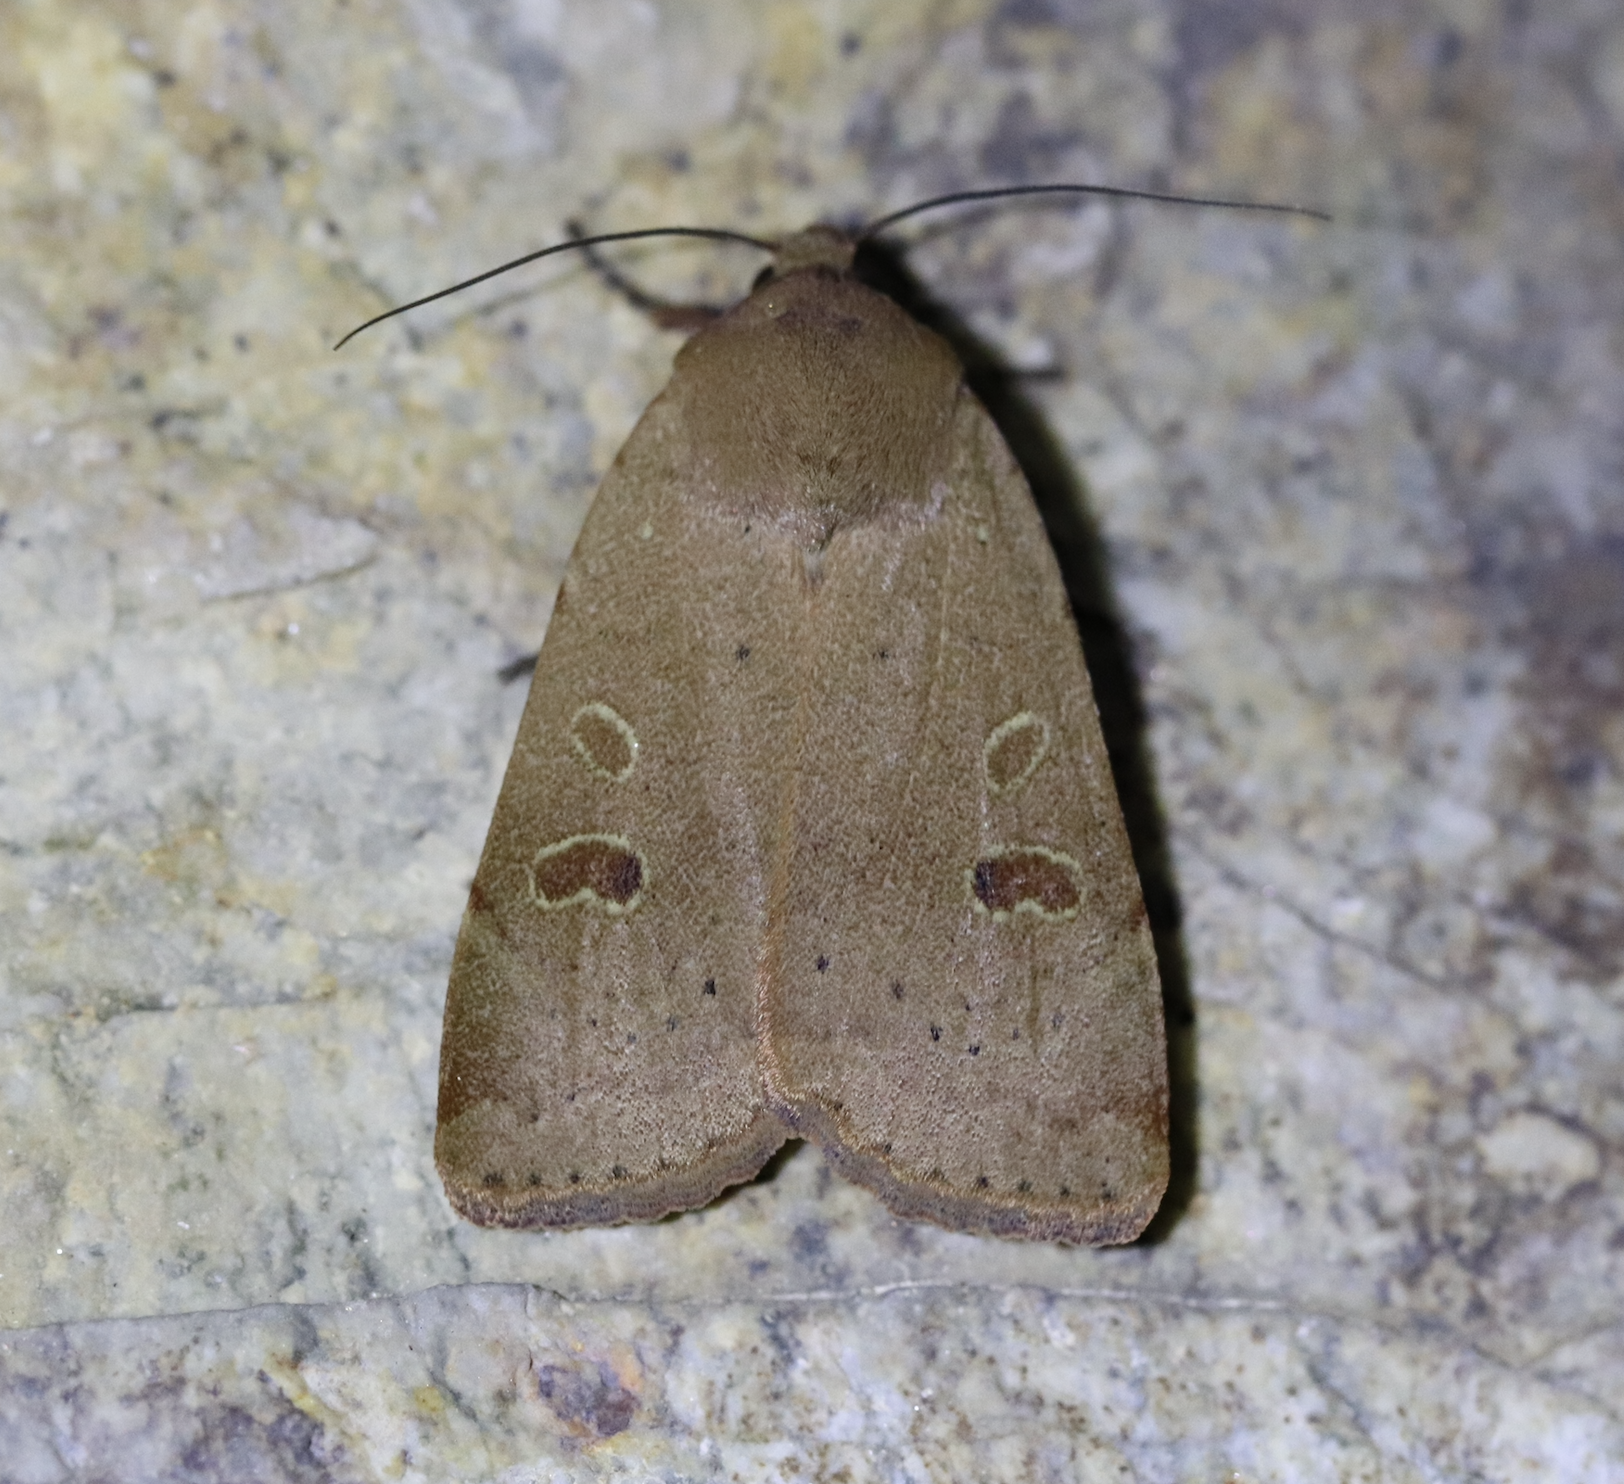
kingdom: Animalia
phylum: Arthropoda
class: Insecta
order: Lepidoptera
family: Noctuidae
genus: Noctua
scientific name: Noctua comes
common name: Lesser yellow underwing
